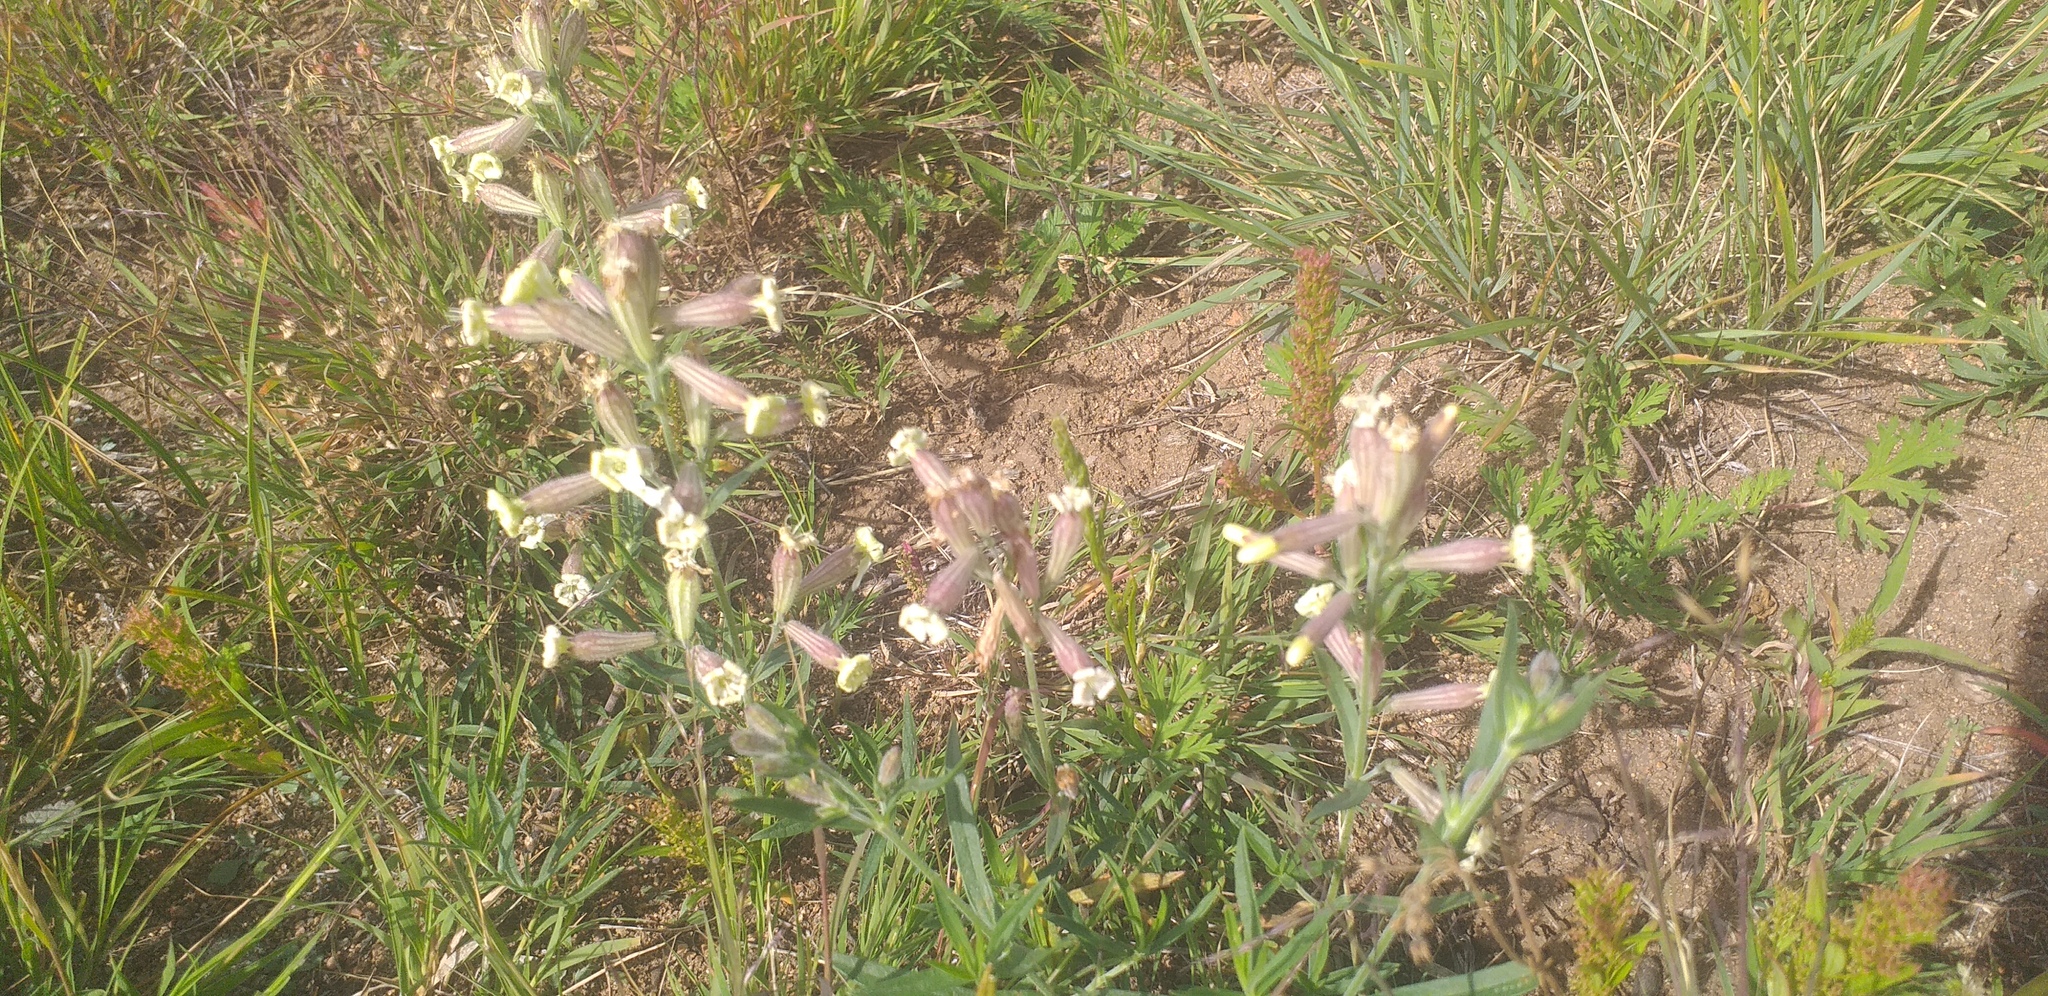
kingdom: Plantae
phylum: Tracheophyta
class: Magnoliopsida
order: Caryophyllales
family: Caryophyllaceae
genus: Silene
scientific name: Silene repens
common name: Pink campion
